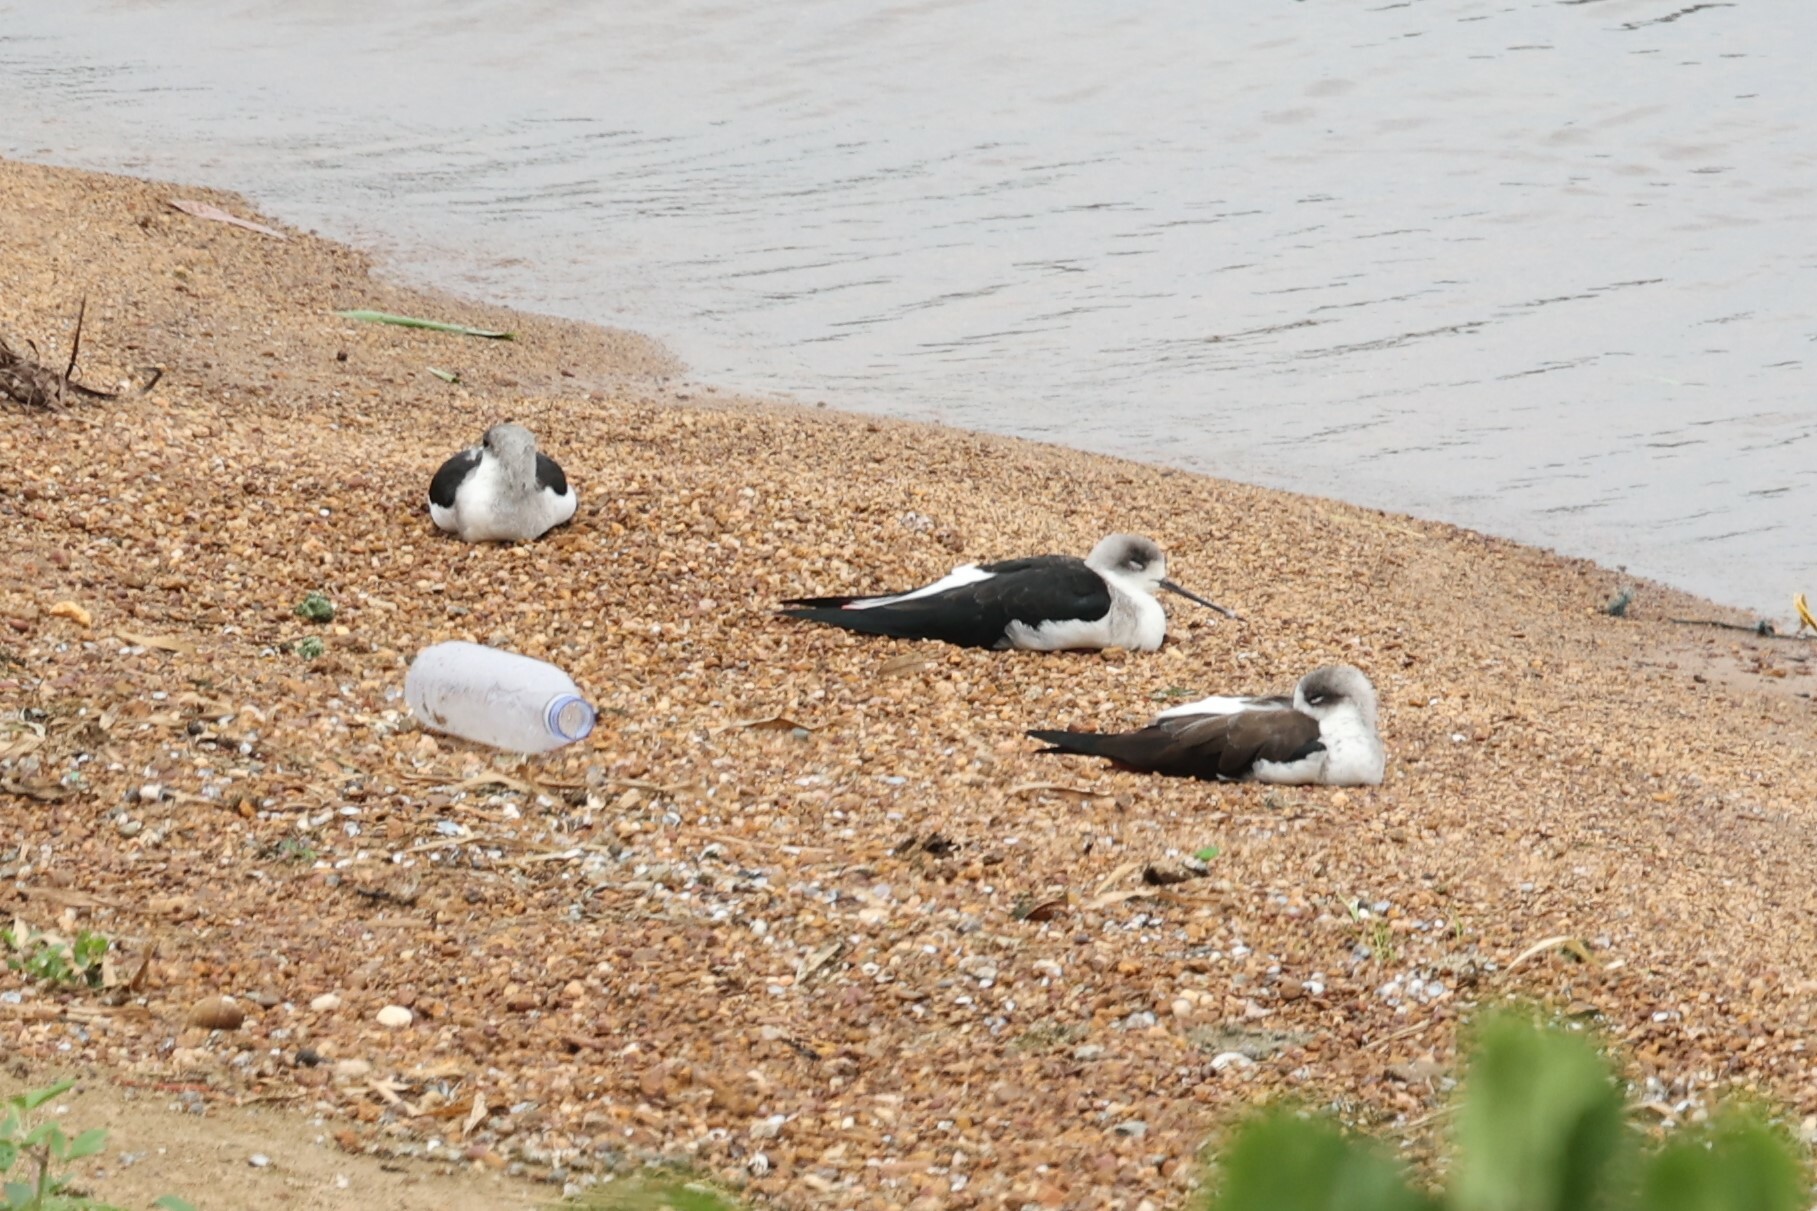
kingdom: Animalia
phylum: Chordata
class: Aves
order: Charadriiformes
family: Recurvirostridae
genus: Himantopus
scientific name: Himantopus himantopus
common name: Black-winged stilt
